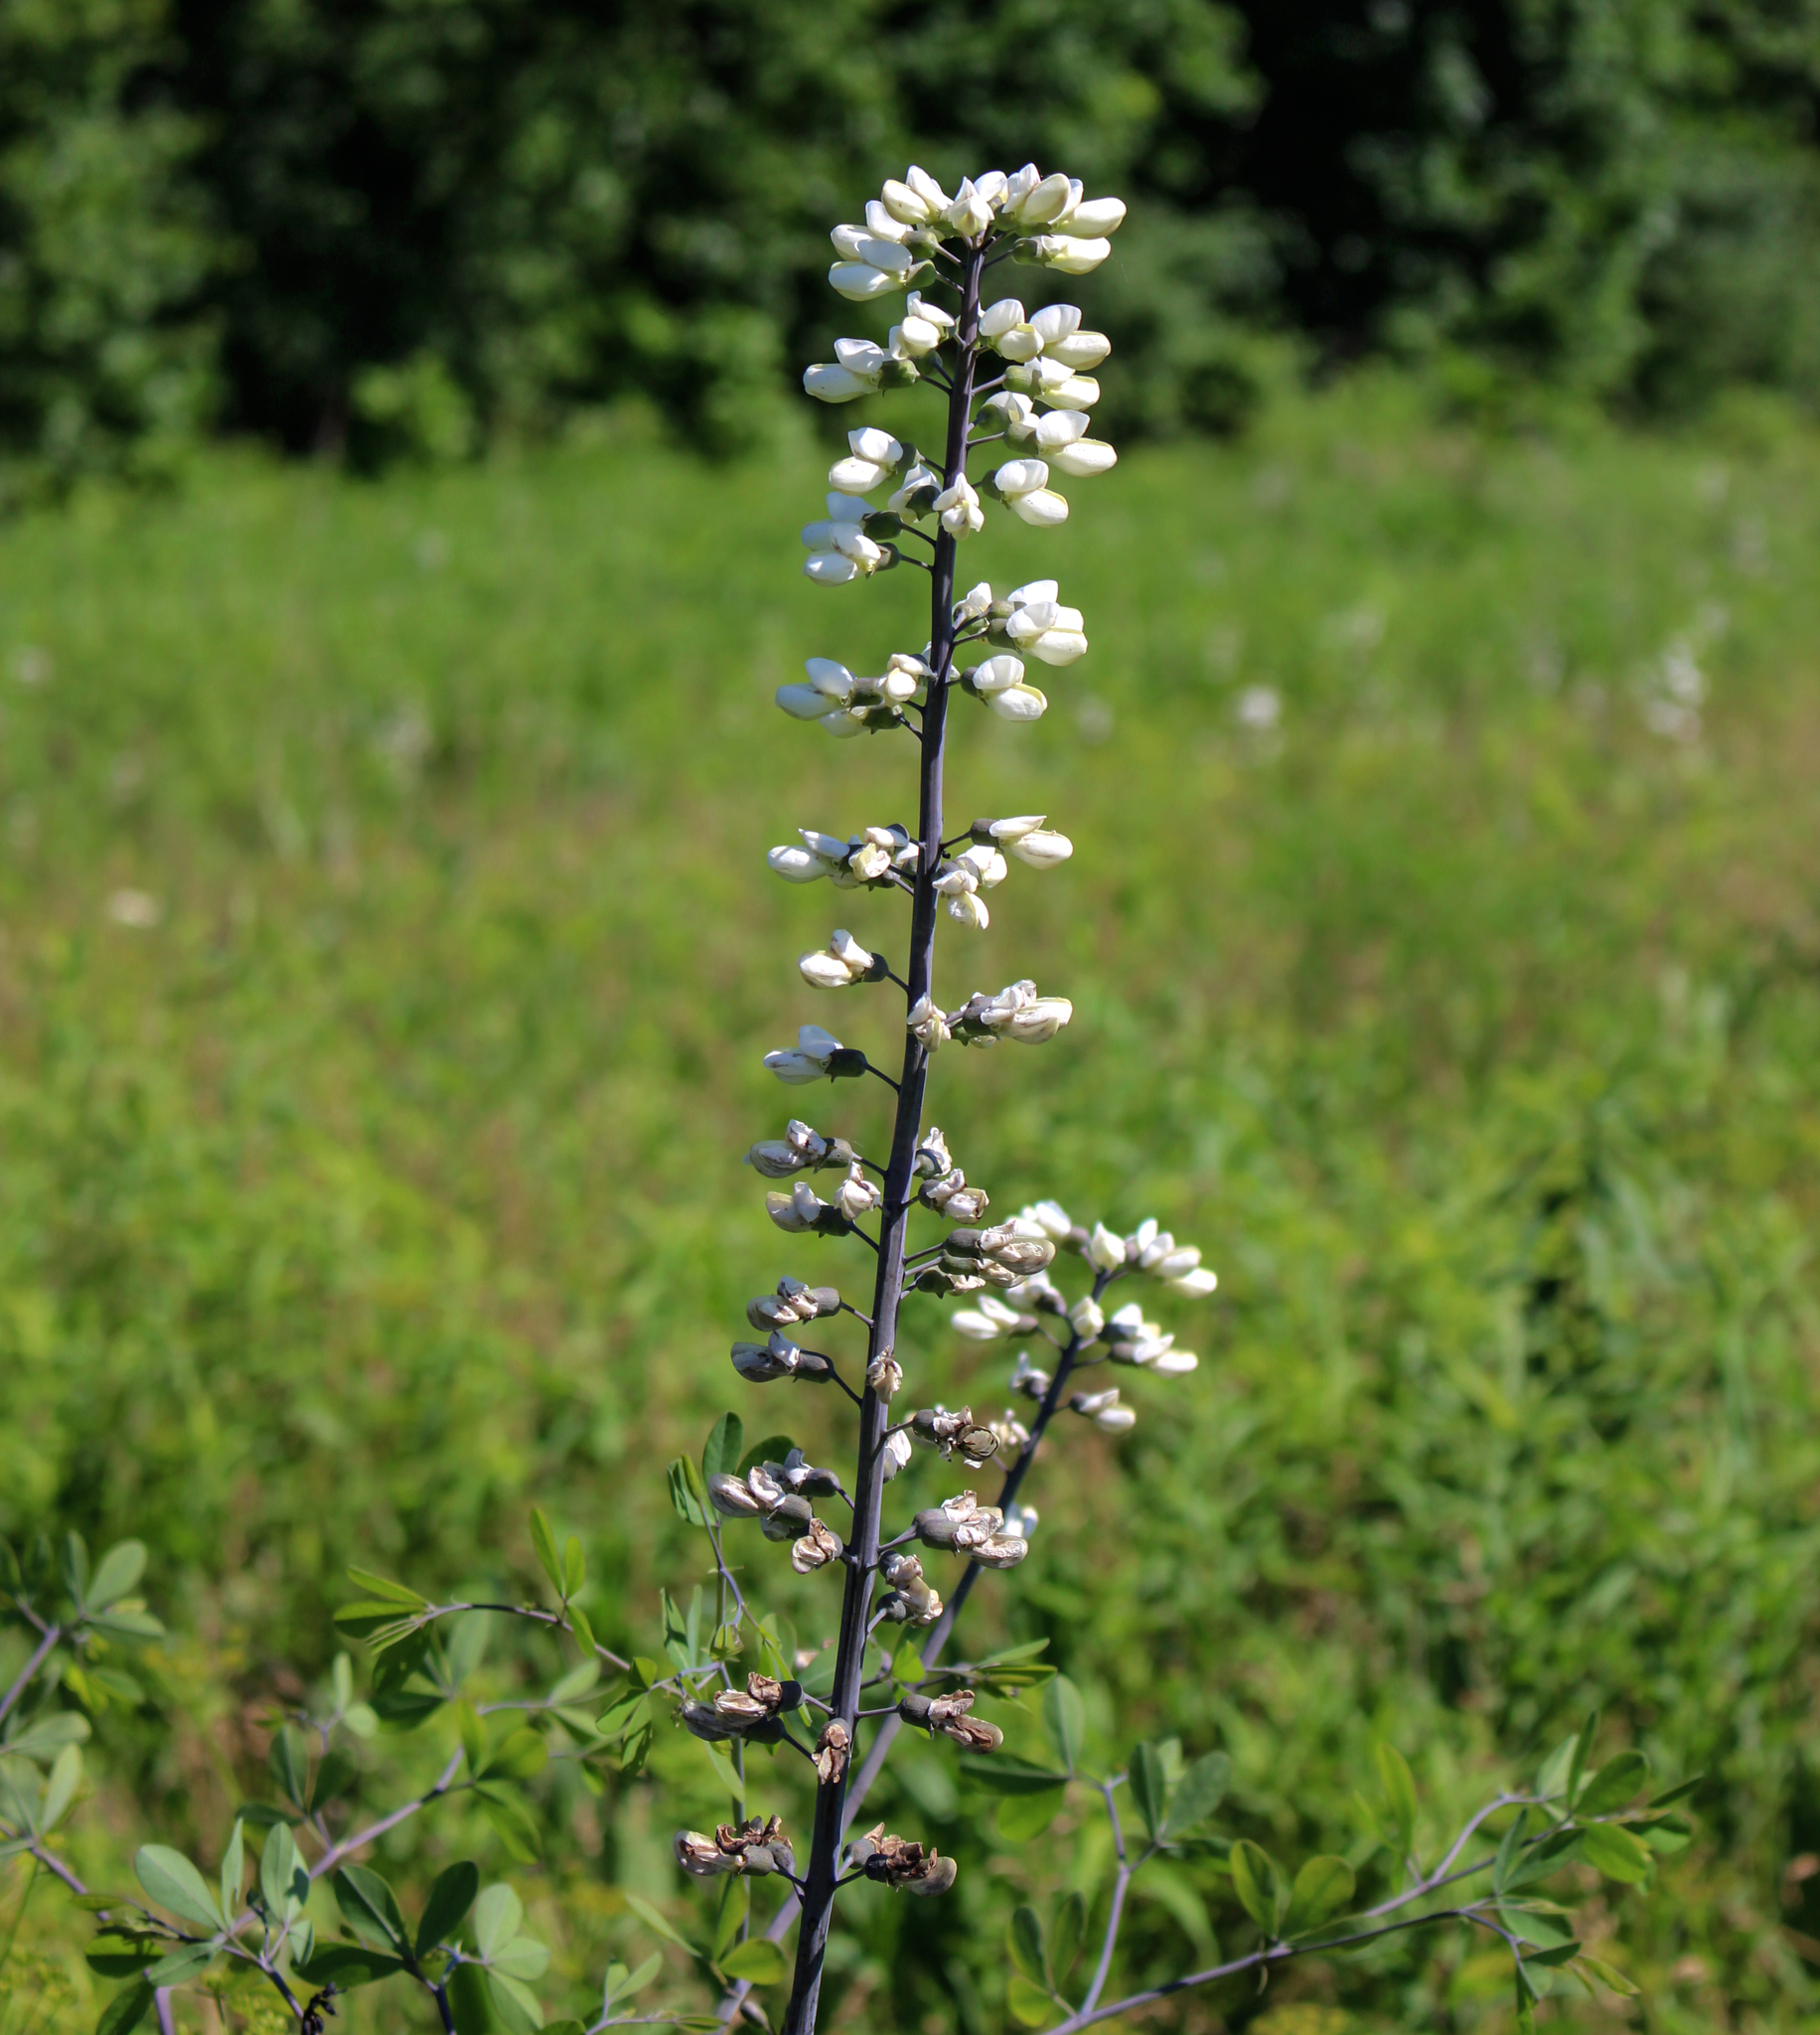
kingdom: Plantae
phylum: Tracheophyta
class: Magnoliopsida
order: Fabales
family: Fabaceae
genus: Baptisia
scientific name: Baptisia alba
